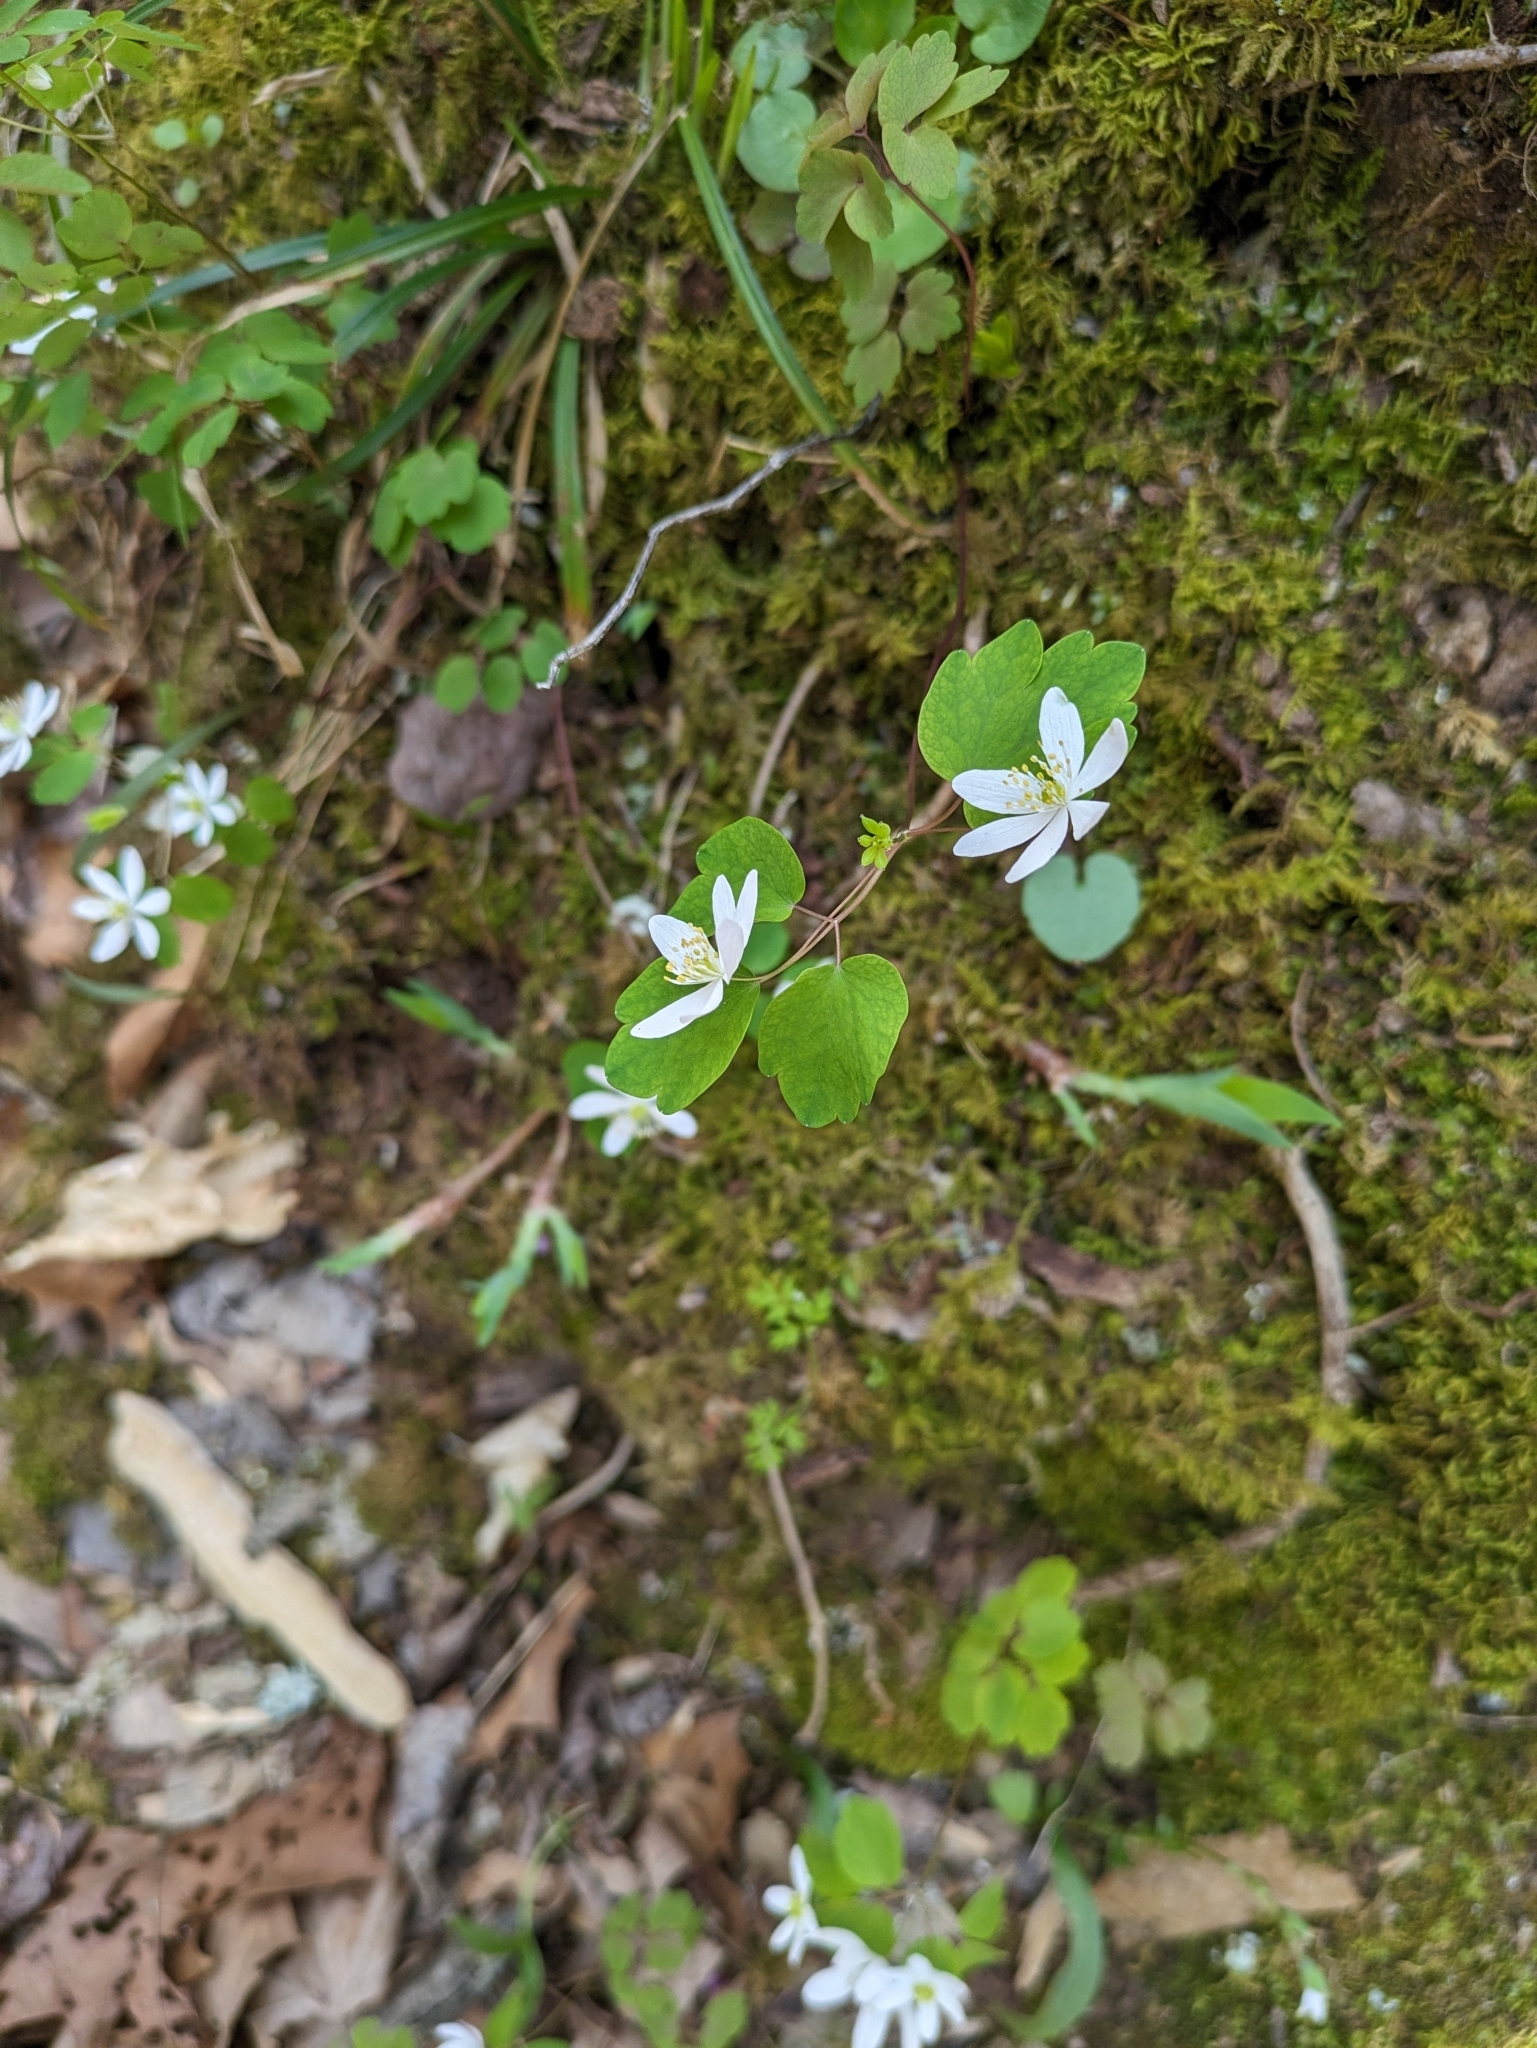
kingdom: Plantae
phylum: Tracheophyta
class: Magnoliopsida
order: Ranunculales
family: Ranunculaceae
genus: Thalictrum
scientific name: Thalictrum thalictroides
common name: Rue-anemone
